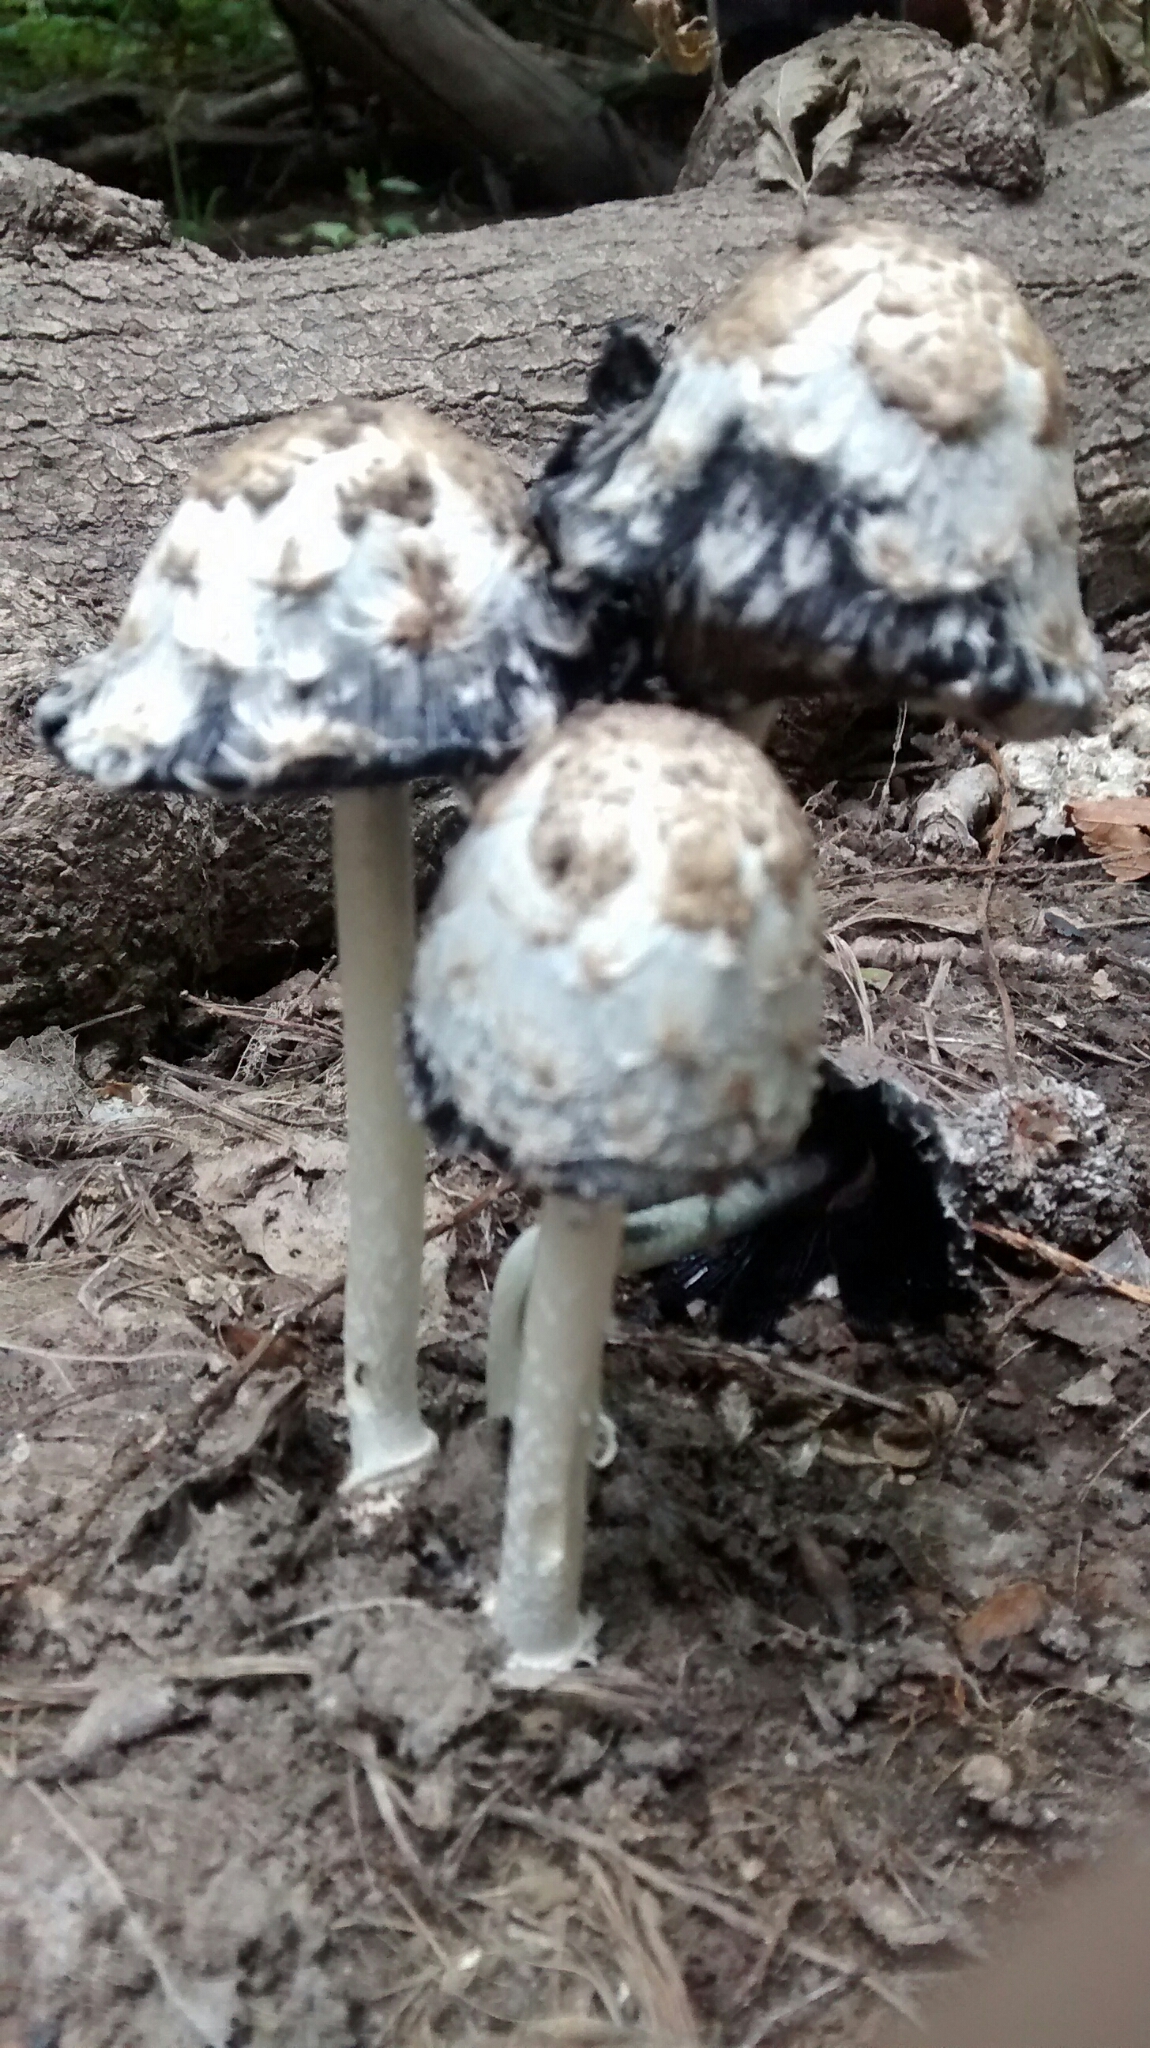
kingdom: Fungi
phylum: Basidiomycota
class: Agaricomycetes
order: Agaricales
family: Agaricaceae
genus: Coprinus
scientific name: Coprinus comatus
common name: Lawyer's wig
